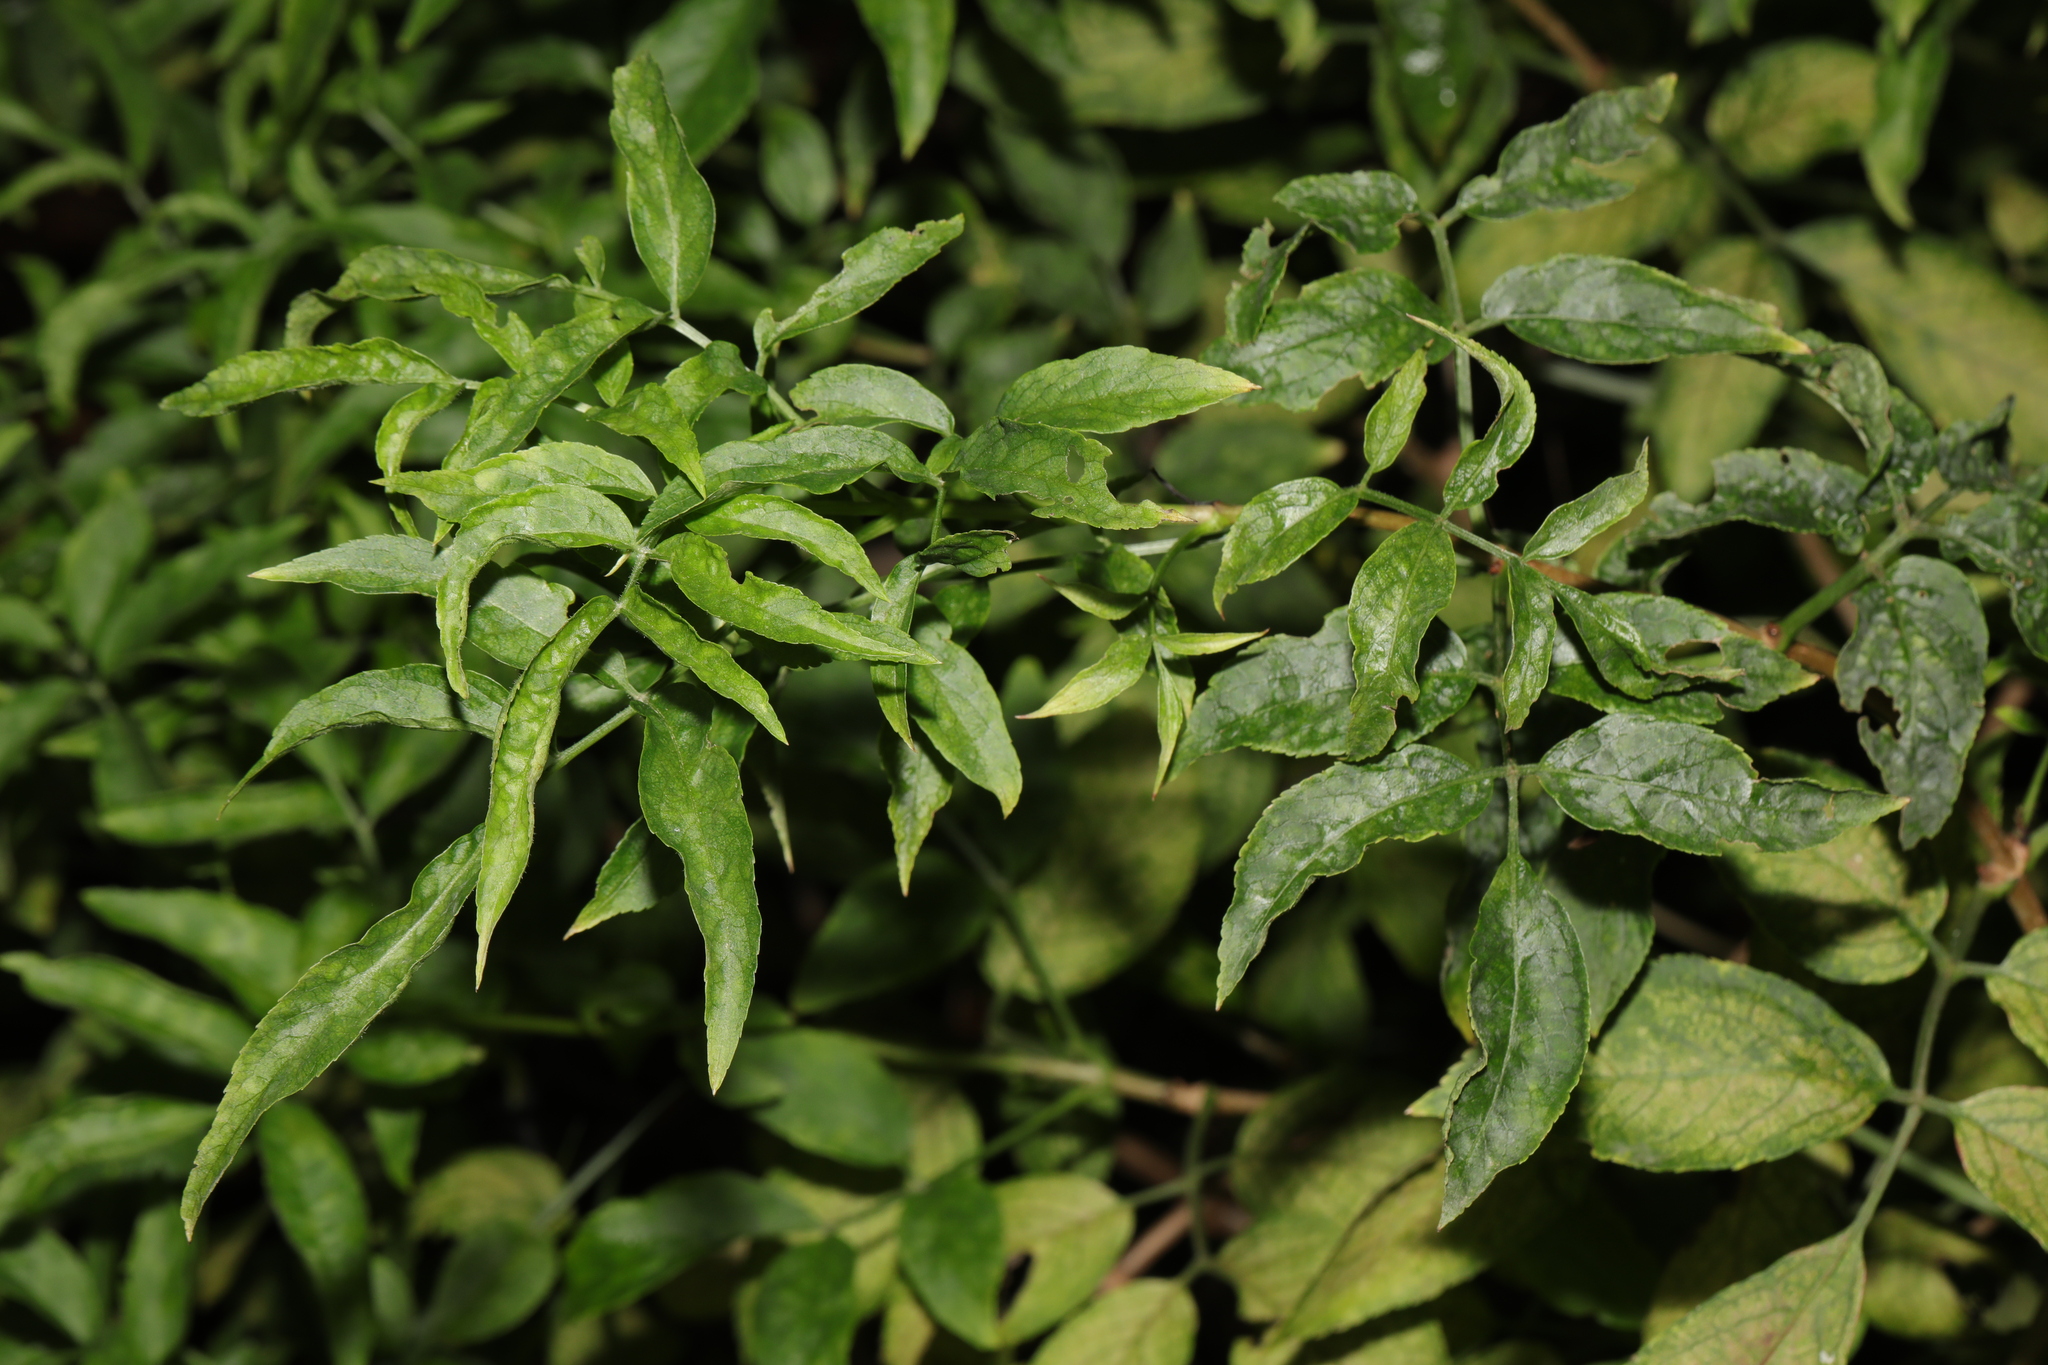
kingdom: Plantae
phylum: Tracheophyta
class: Magnoliopsida
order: Dipsacales
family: Viburnaceae
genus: Sambucus
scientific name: Sambucus nigra
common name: Elder
